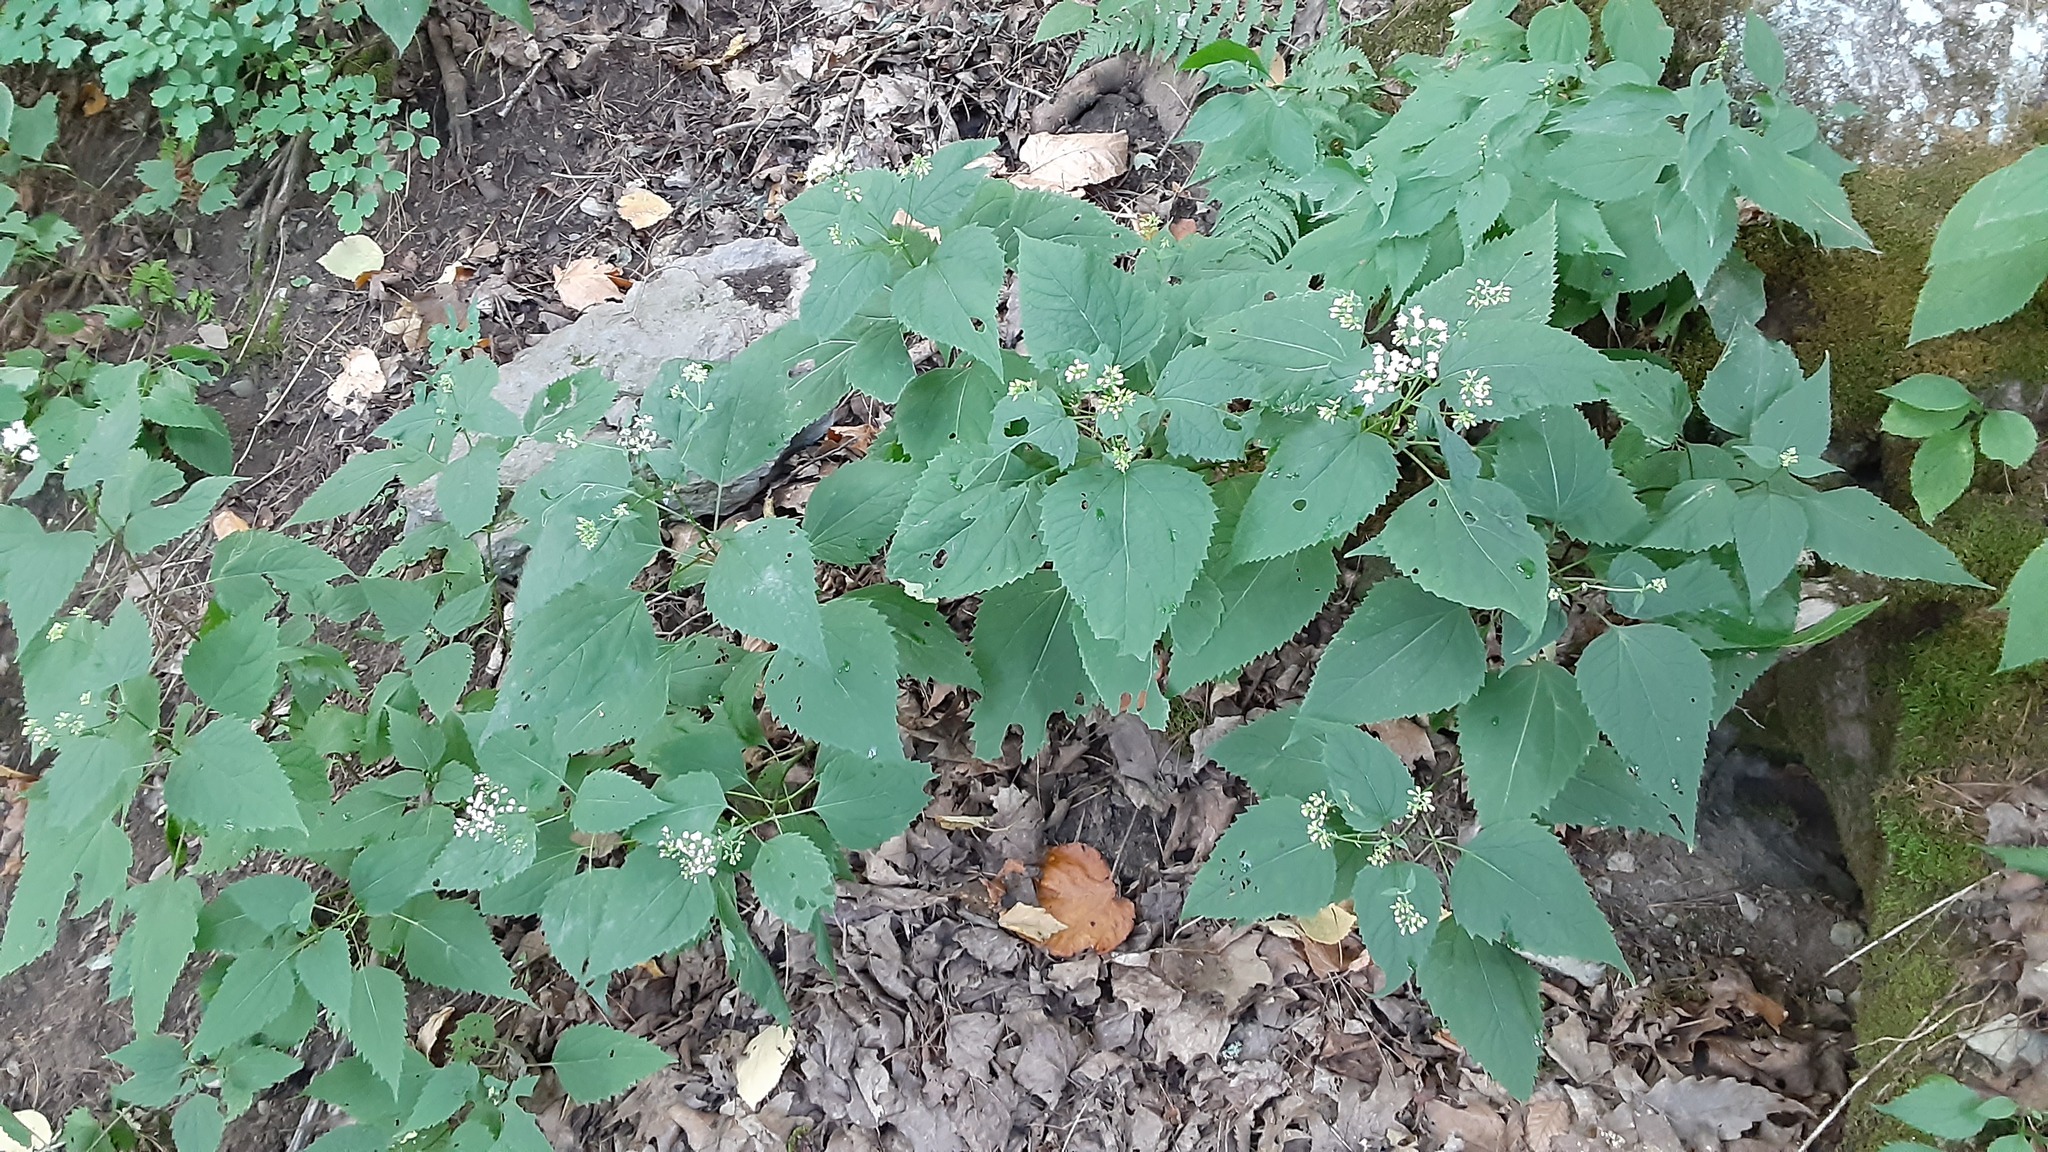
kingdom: Plantae
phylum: Tracheophyta
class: Magnoliopsida
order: Asterales
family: Asteraceae
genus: Ageratina
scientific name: Ageratina altissima
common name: White snakeroot
